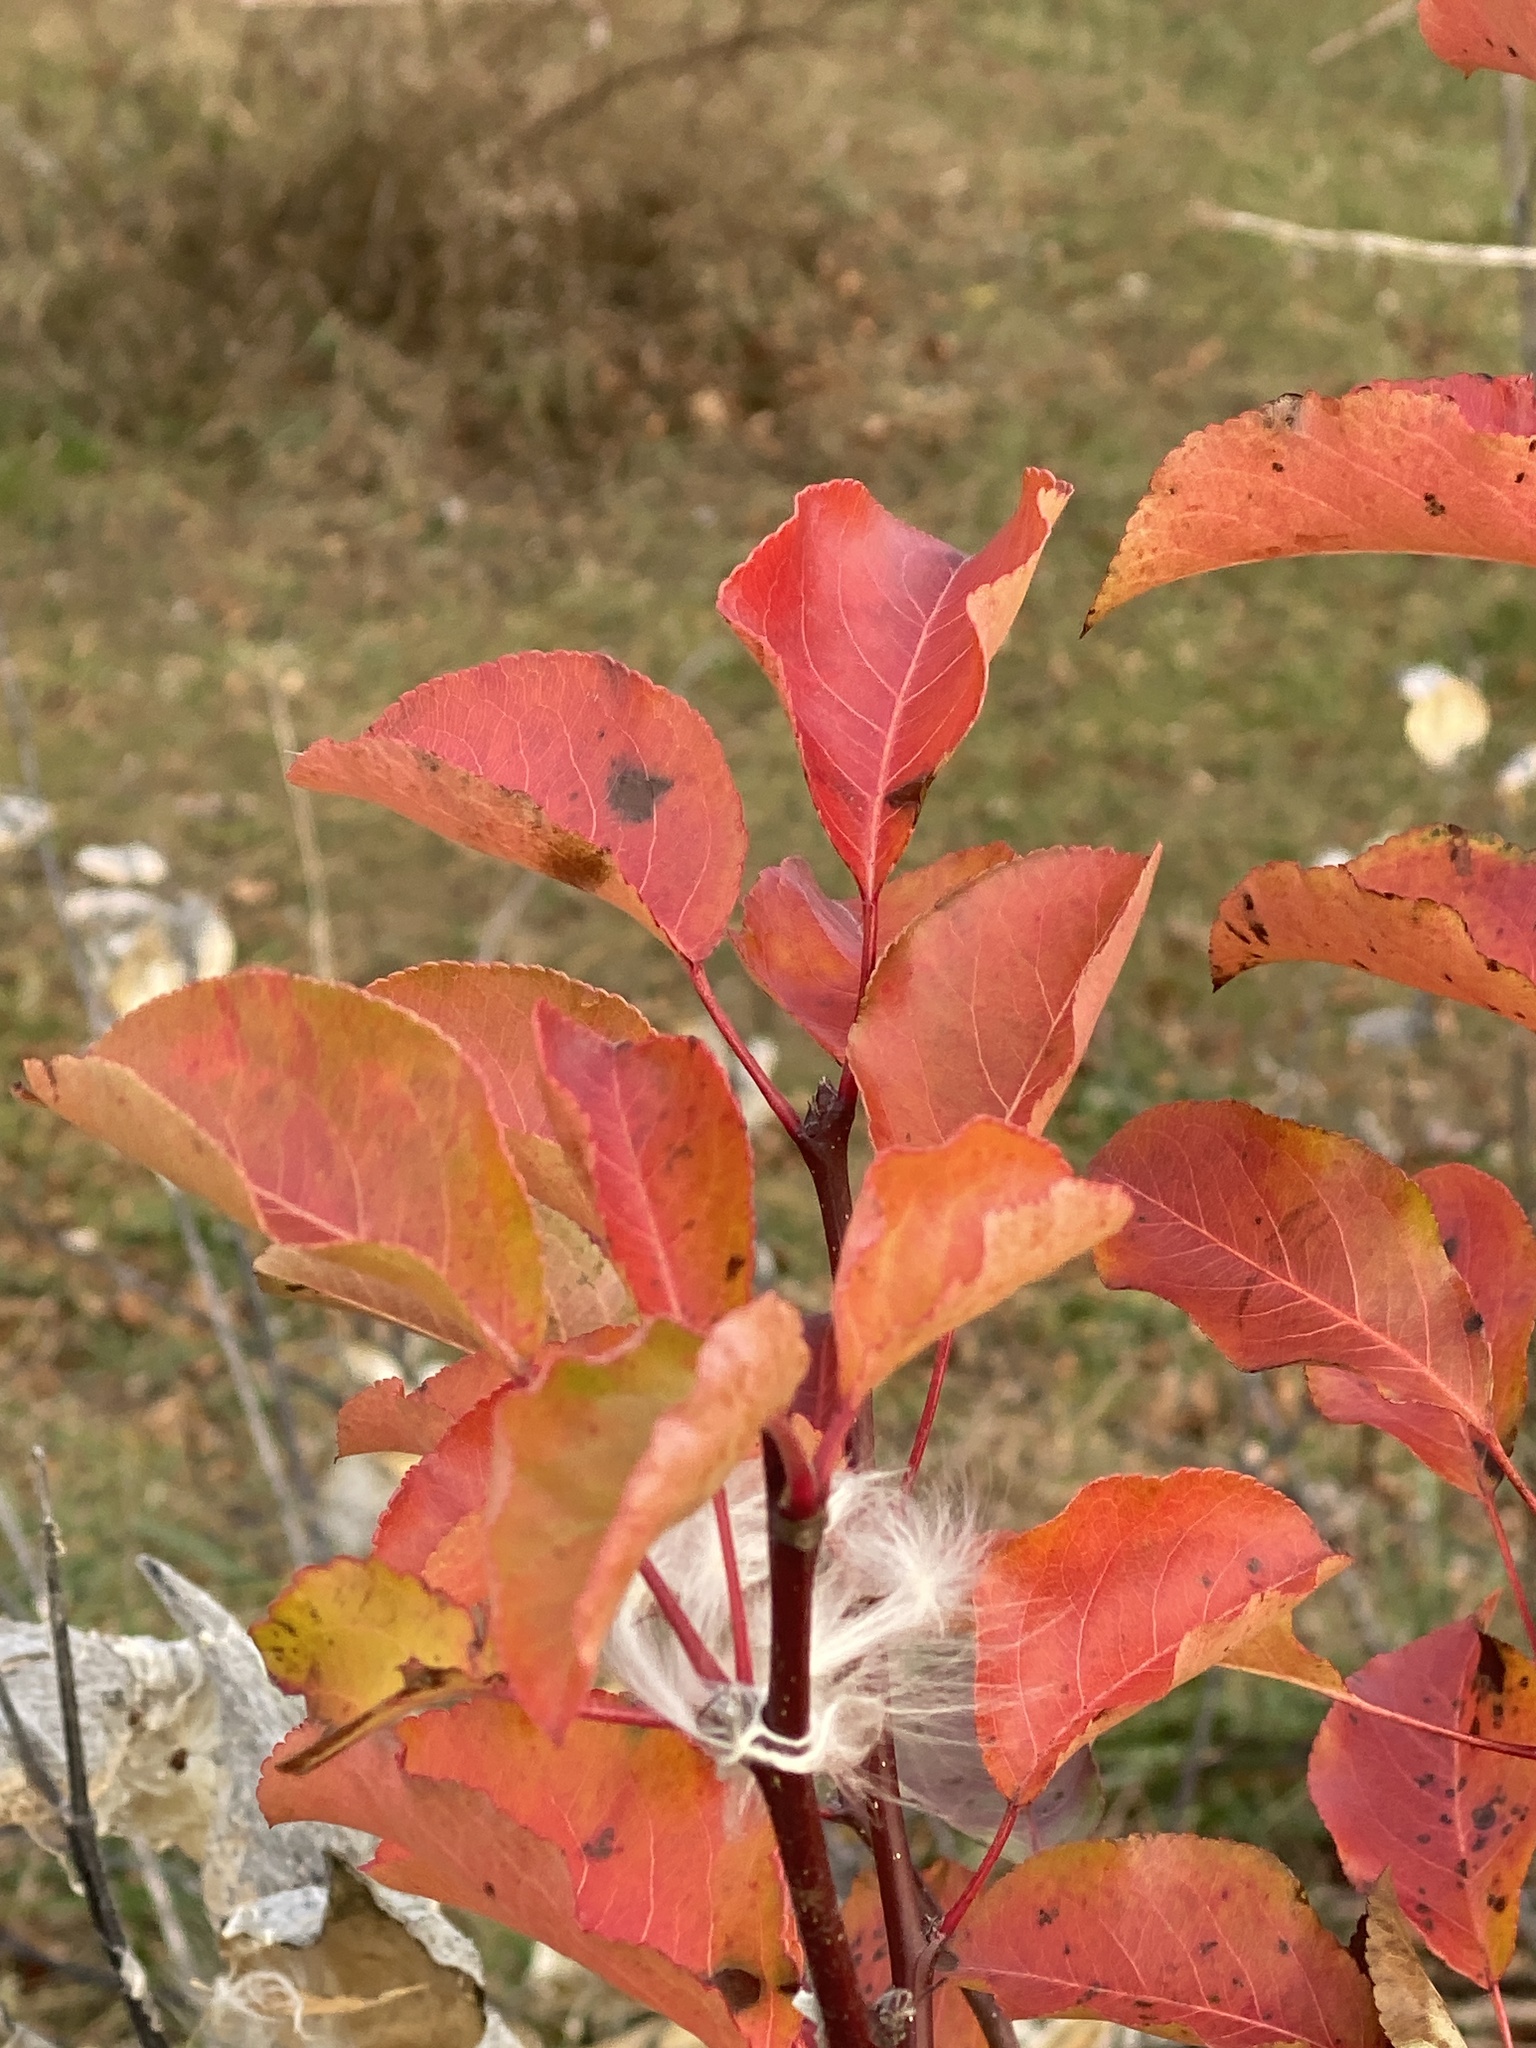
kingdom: Plantae
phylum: Tracheophyta
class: Magnoliopsida
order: Rosales
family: Rosaceae
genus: Pyrus
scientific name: Pyrus calleryana
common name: Callery pear
